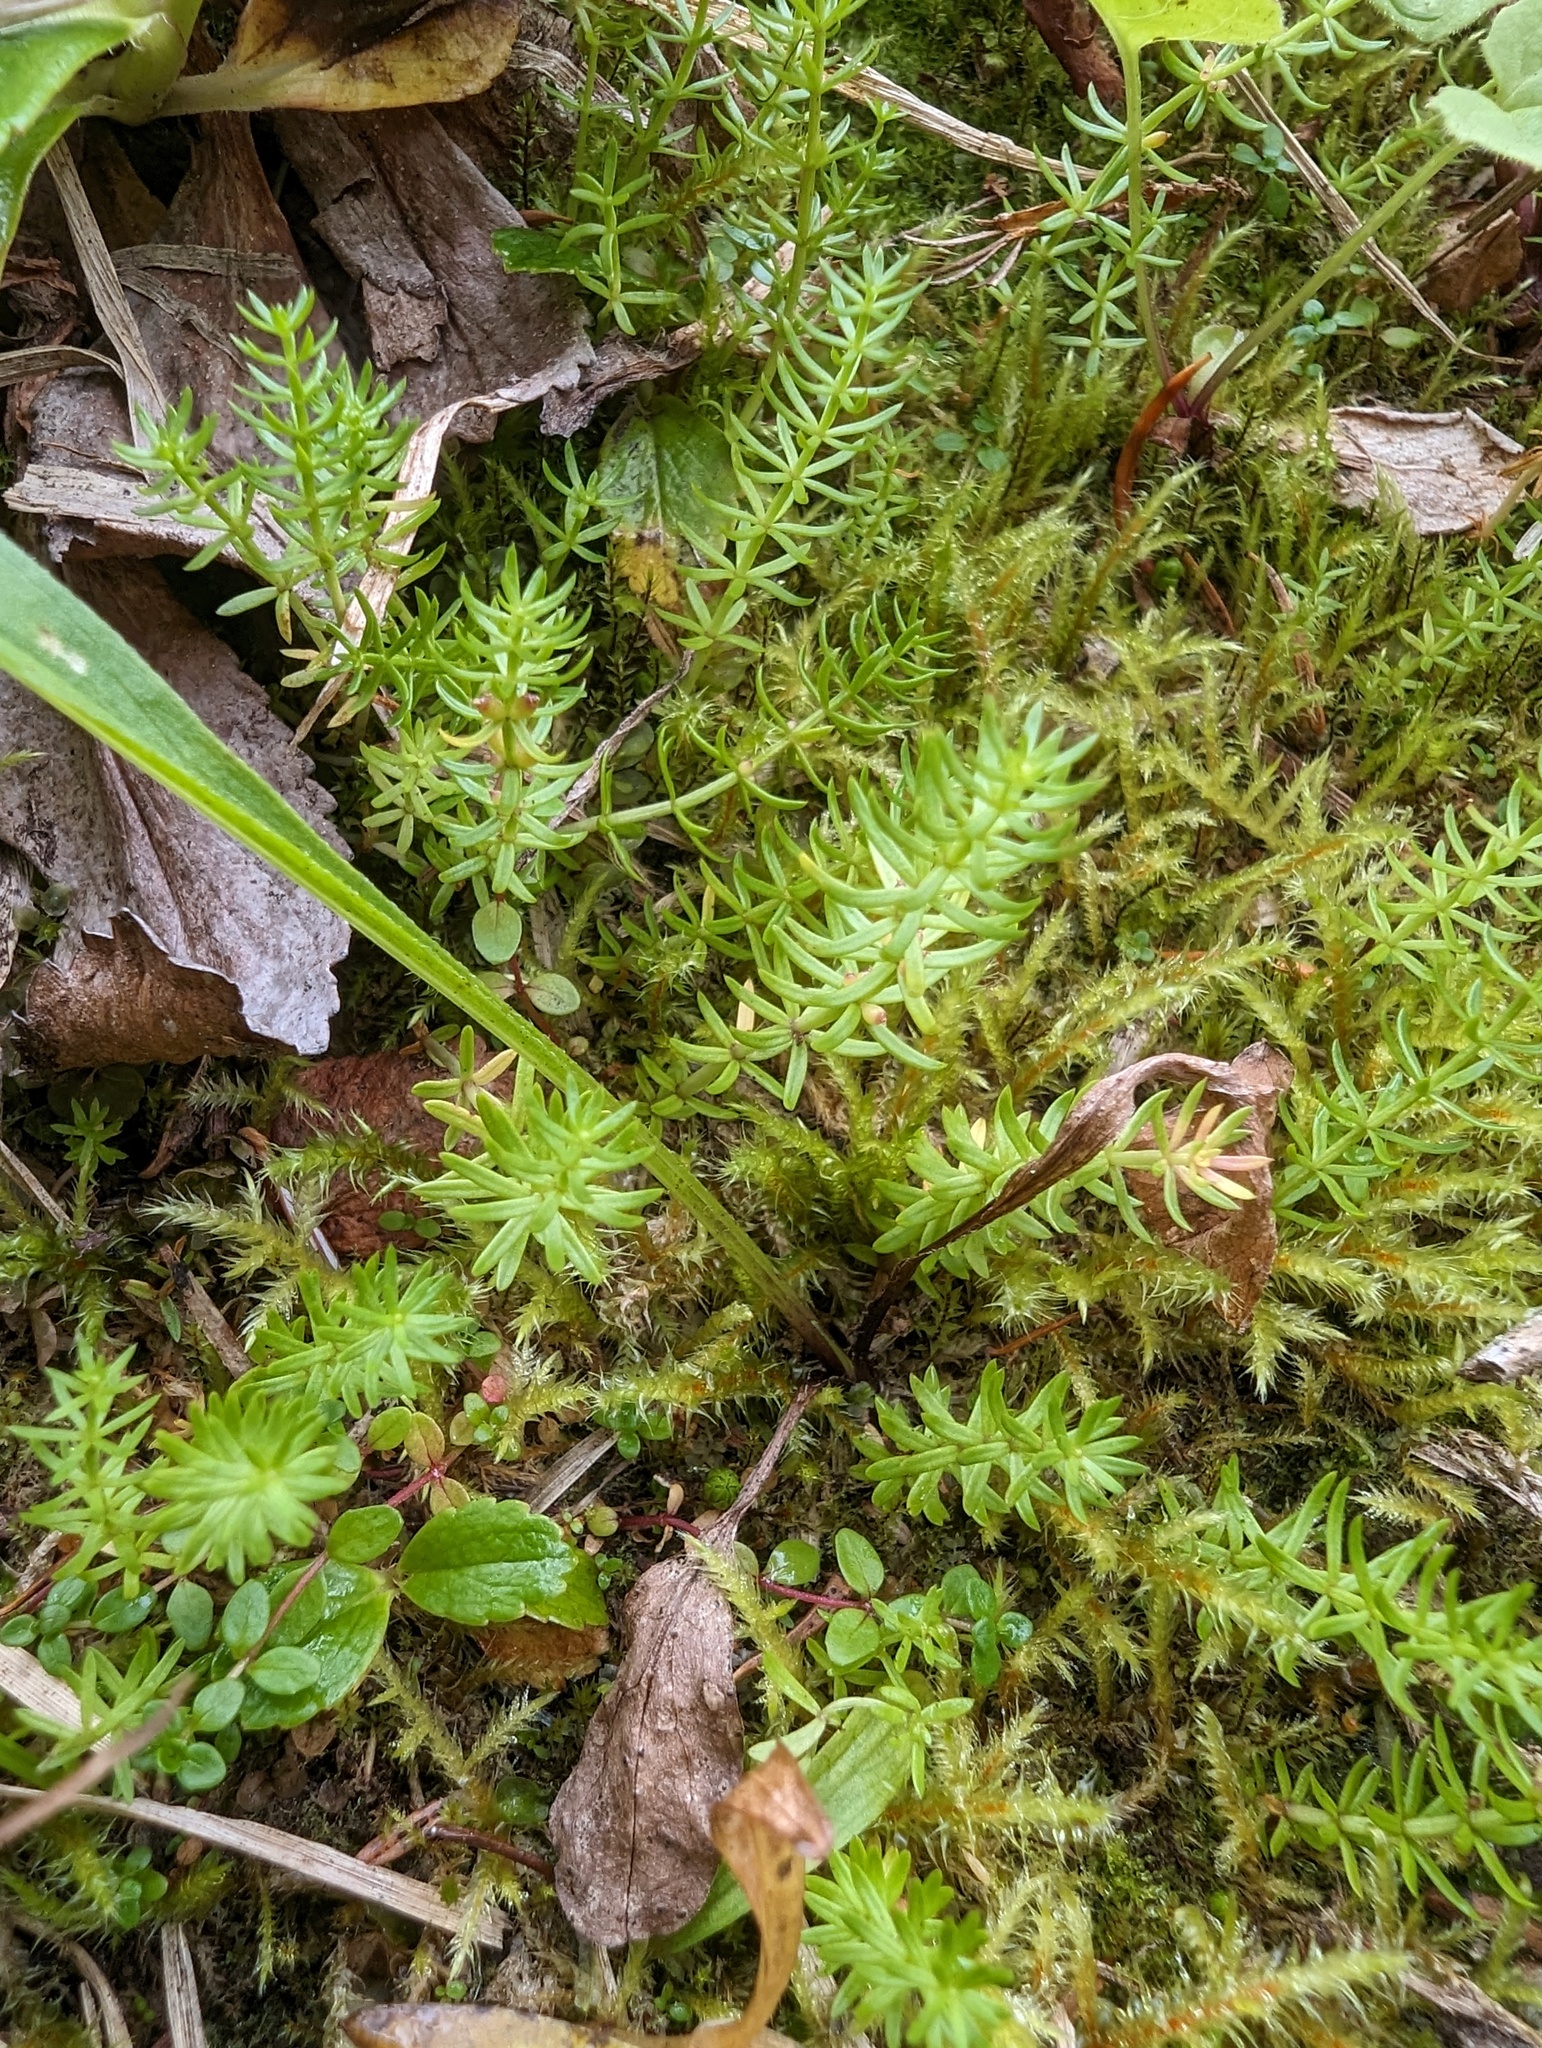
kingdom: Plantae
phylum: Tracheophyta
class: Magnoliopsida
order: Lamiales
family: Plantaginaceae
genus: Hippuris
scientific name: Hippuris montana
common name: Mountain mare's-tail
